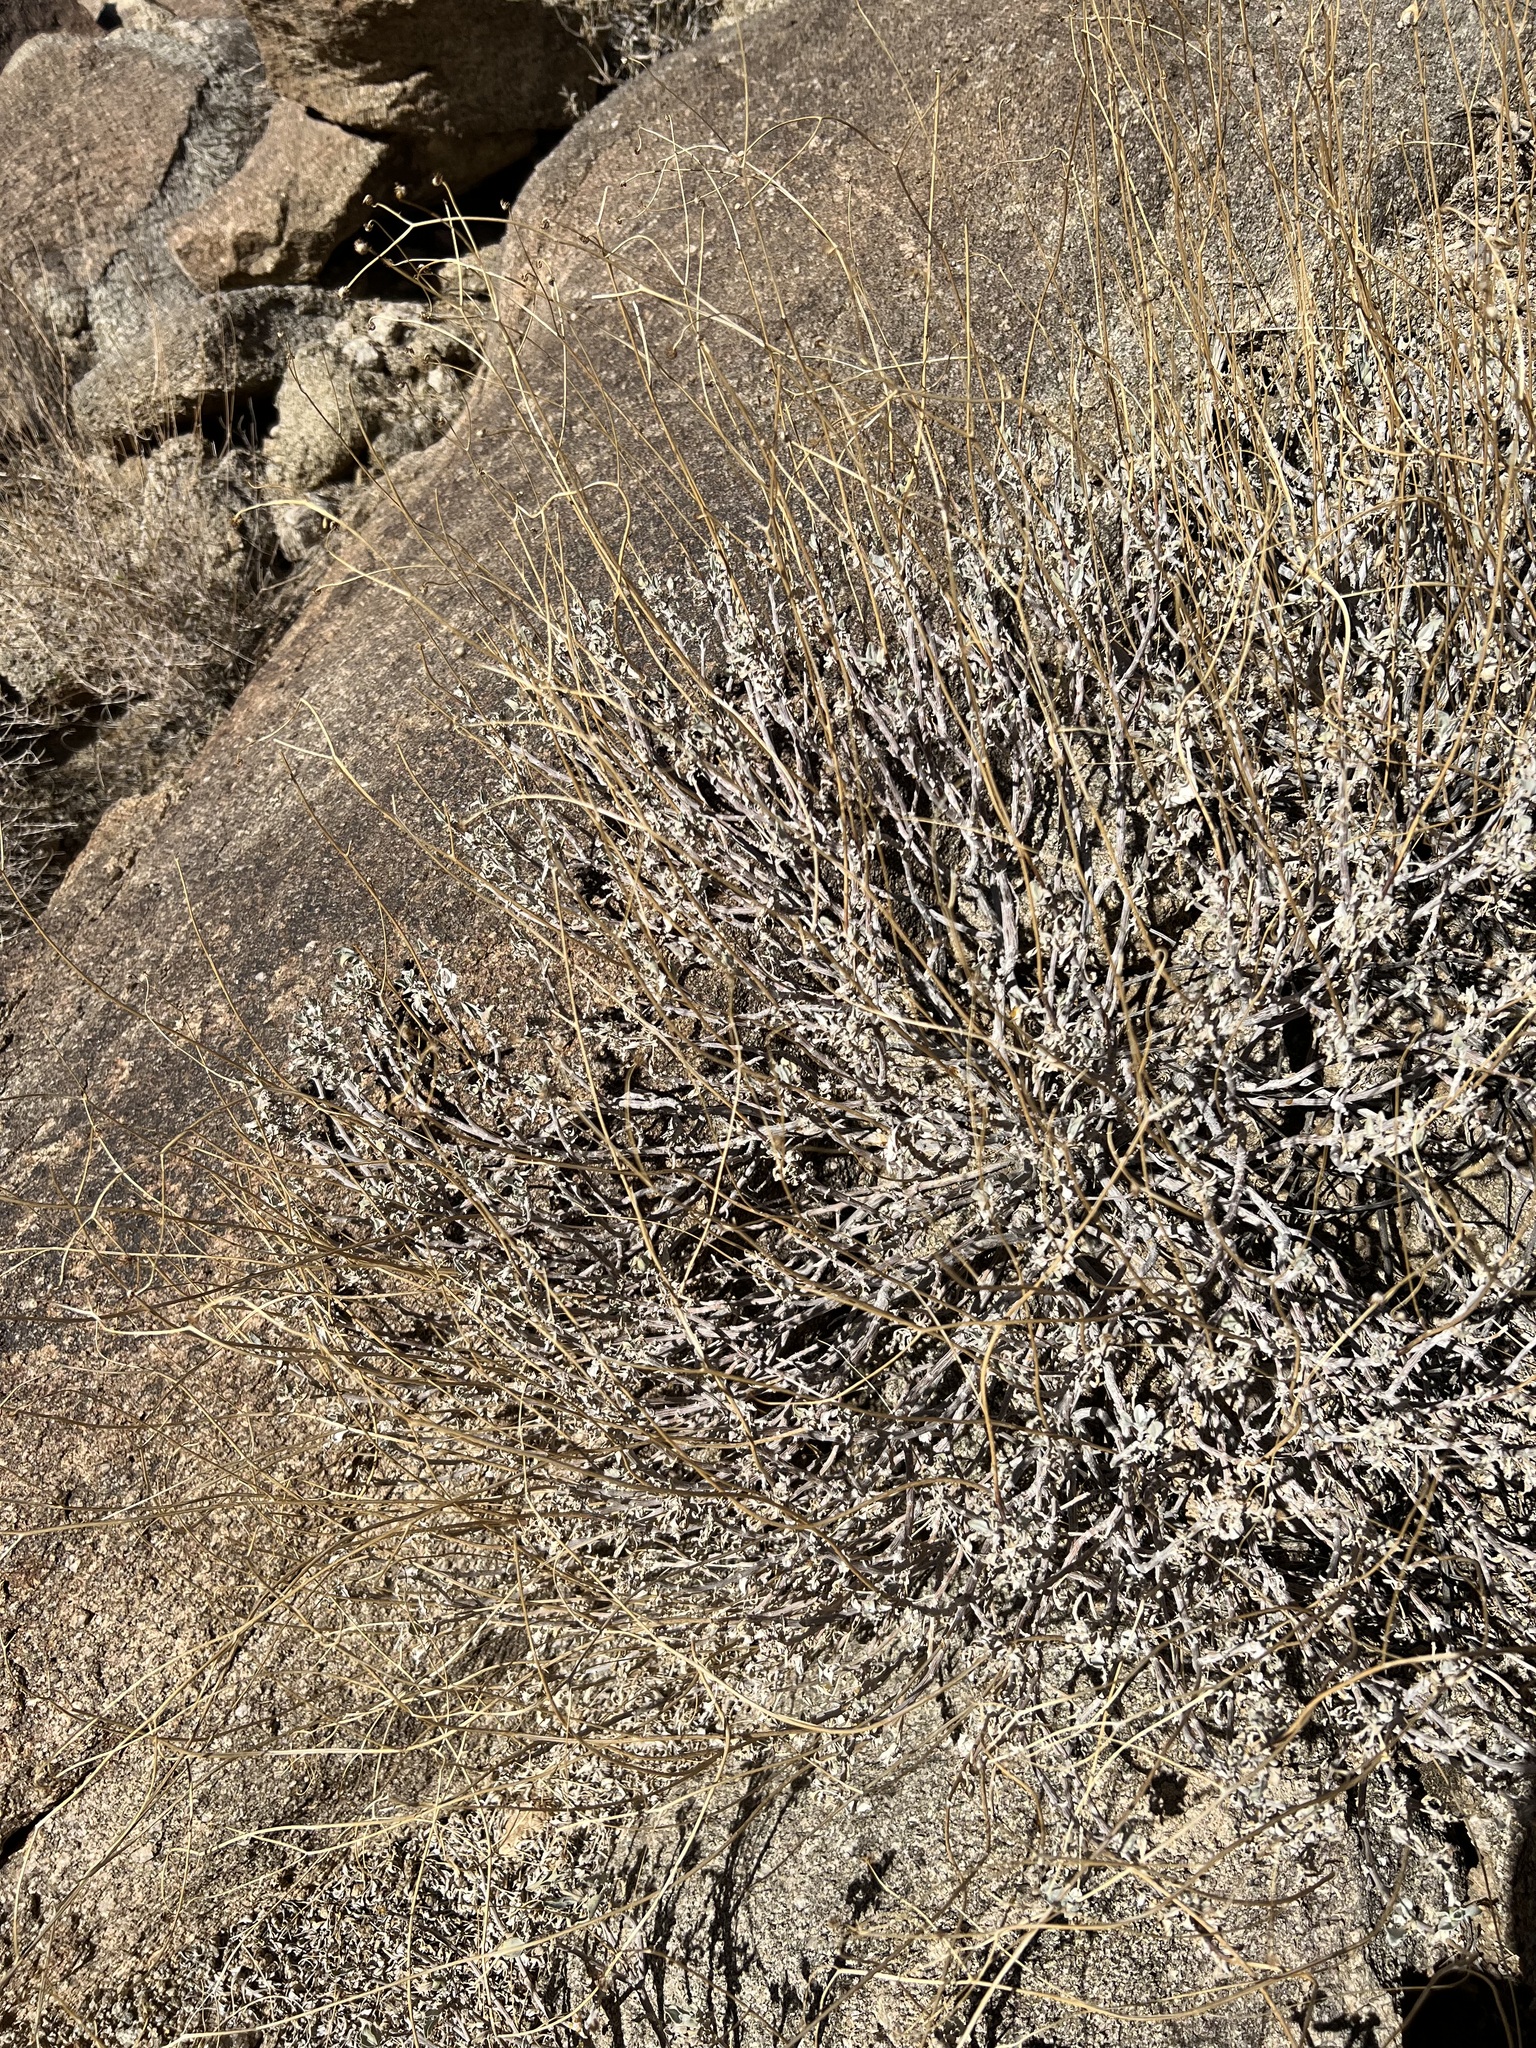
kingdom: Plantae
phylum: Tracheophyta
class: Magnoliopsida
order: Asterales
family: Asteraceae
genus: Encelia
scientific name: Encelia farinosa
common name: Brittlebush
